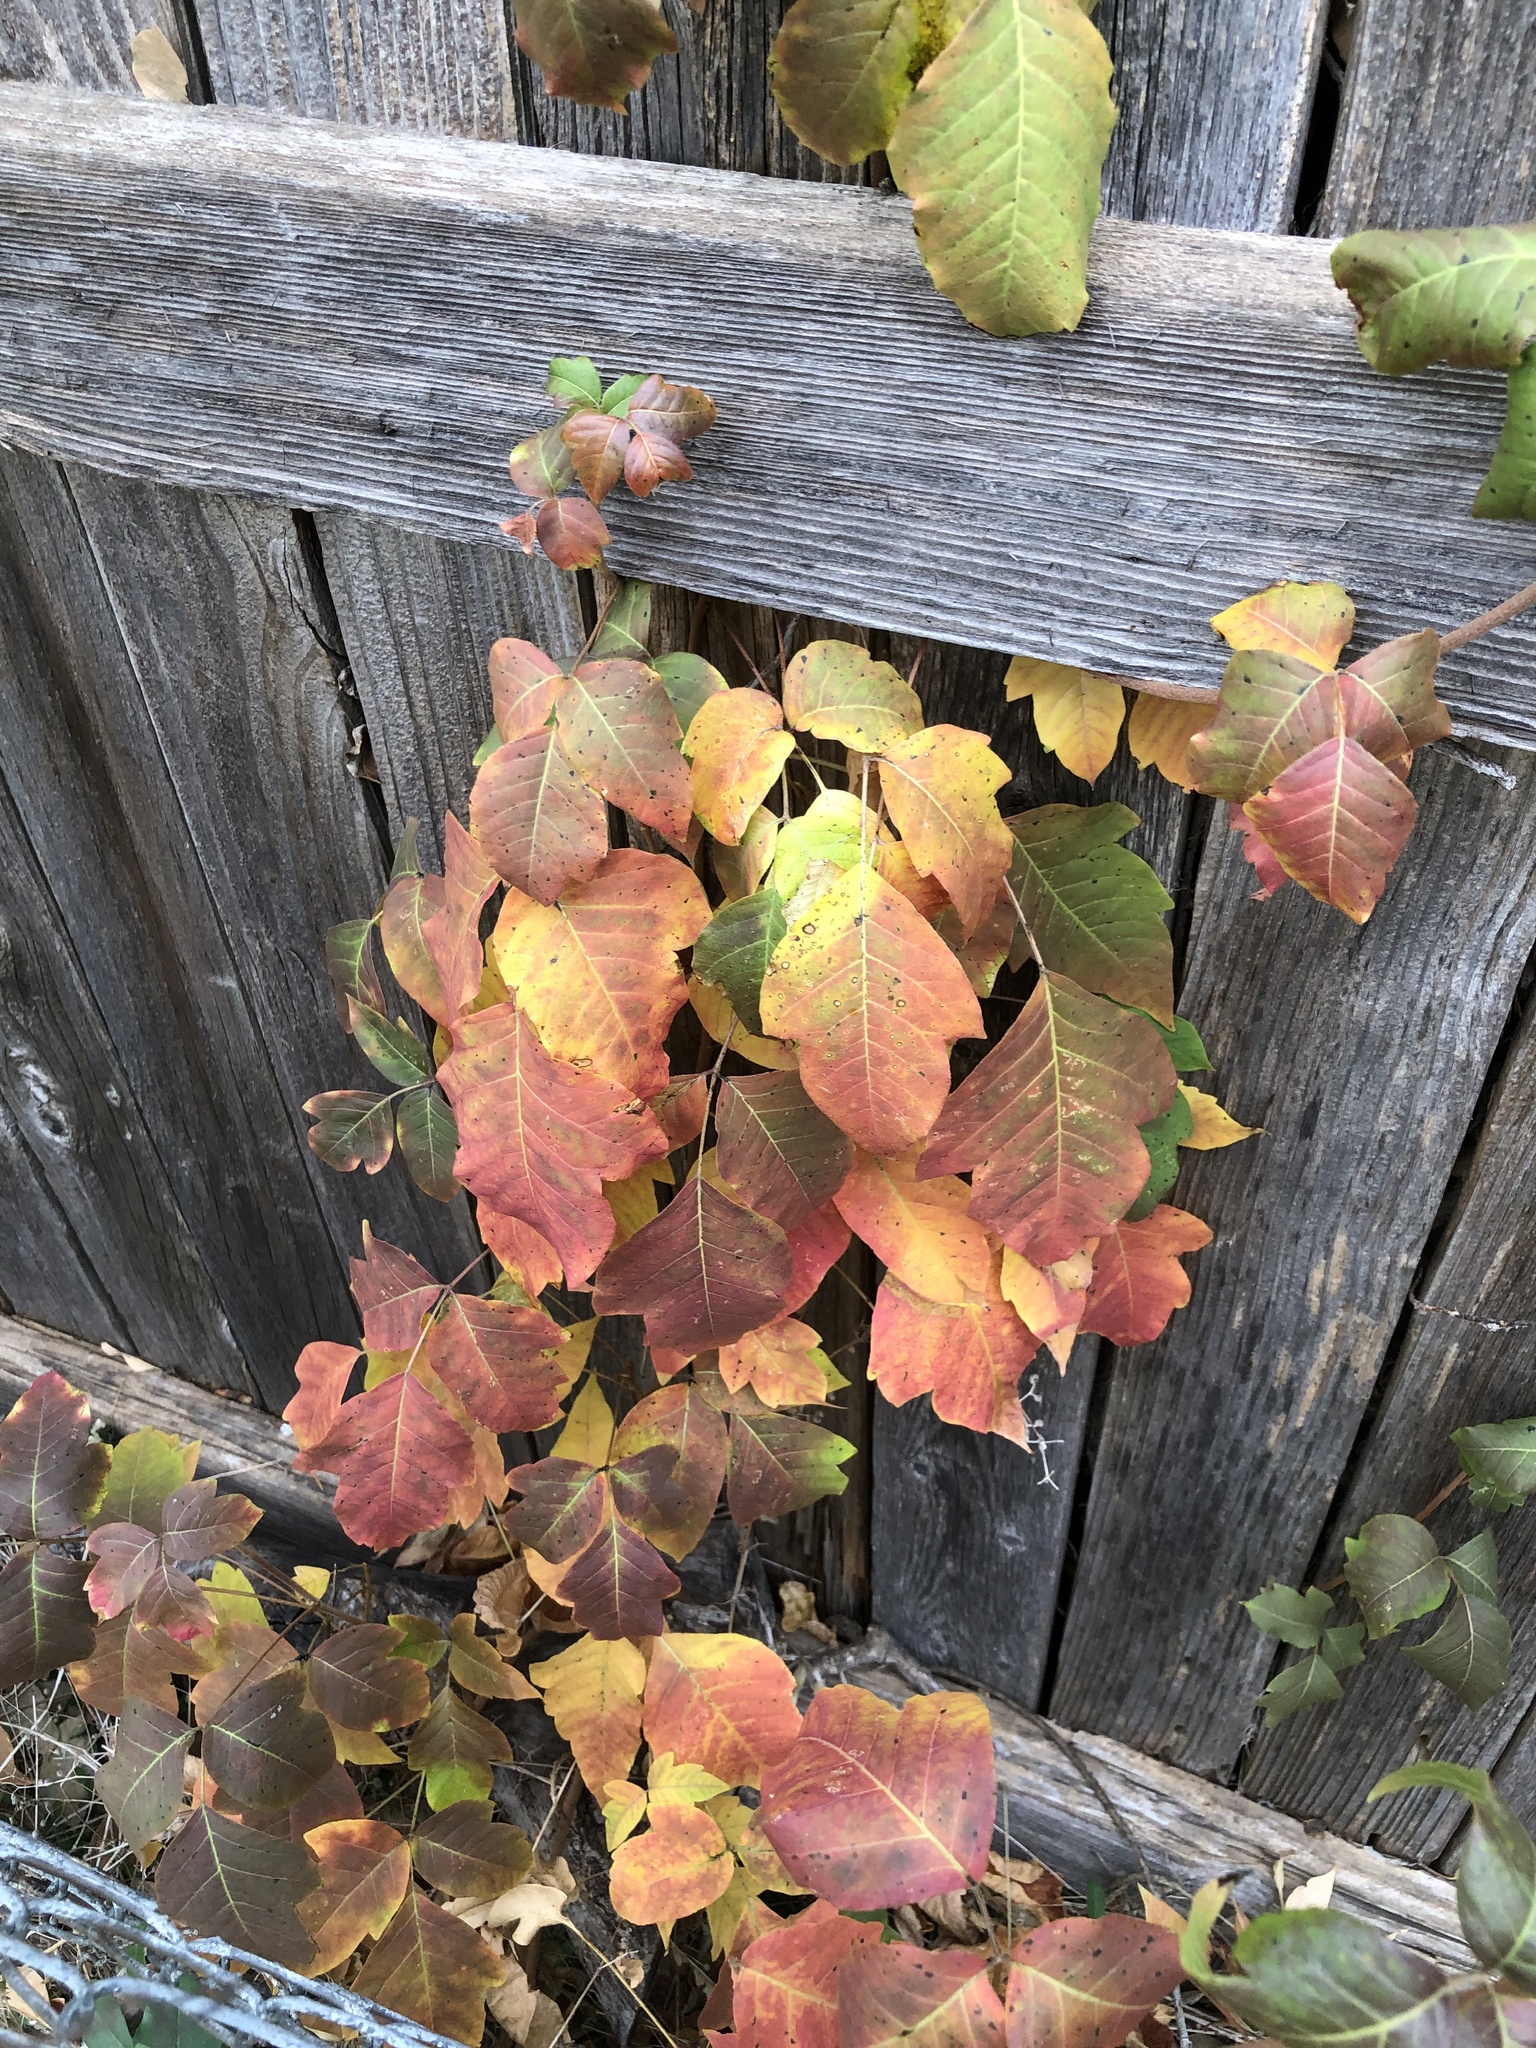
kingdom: Plantae
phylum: Tracheophyta
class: Magnoliopsida
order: Sapindales
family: Anacardiaceae
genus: Toxicodendron
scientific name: Toxicodendron radicans
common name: Poison ivy
